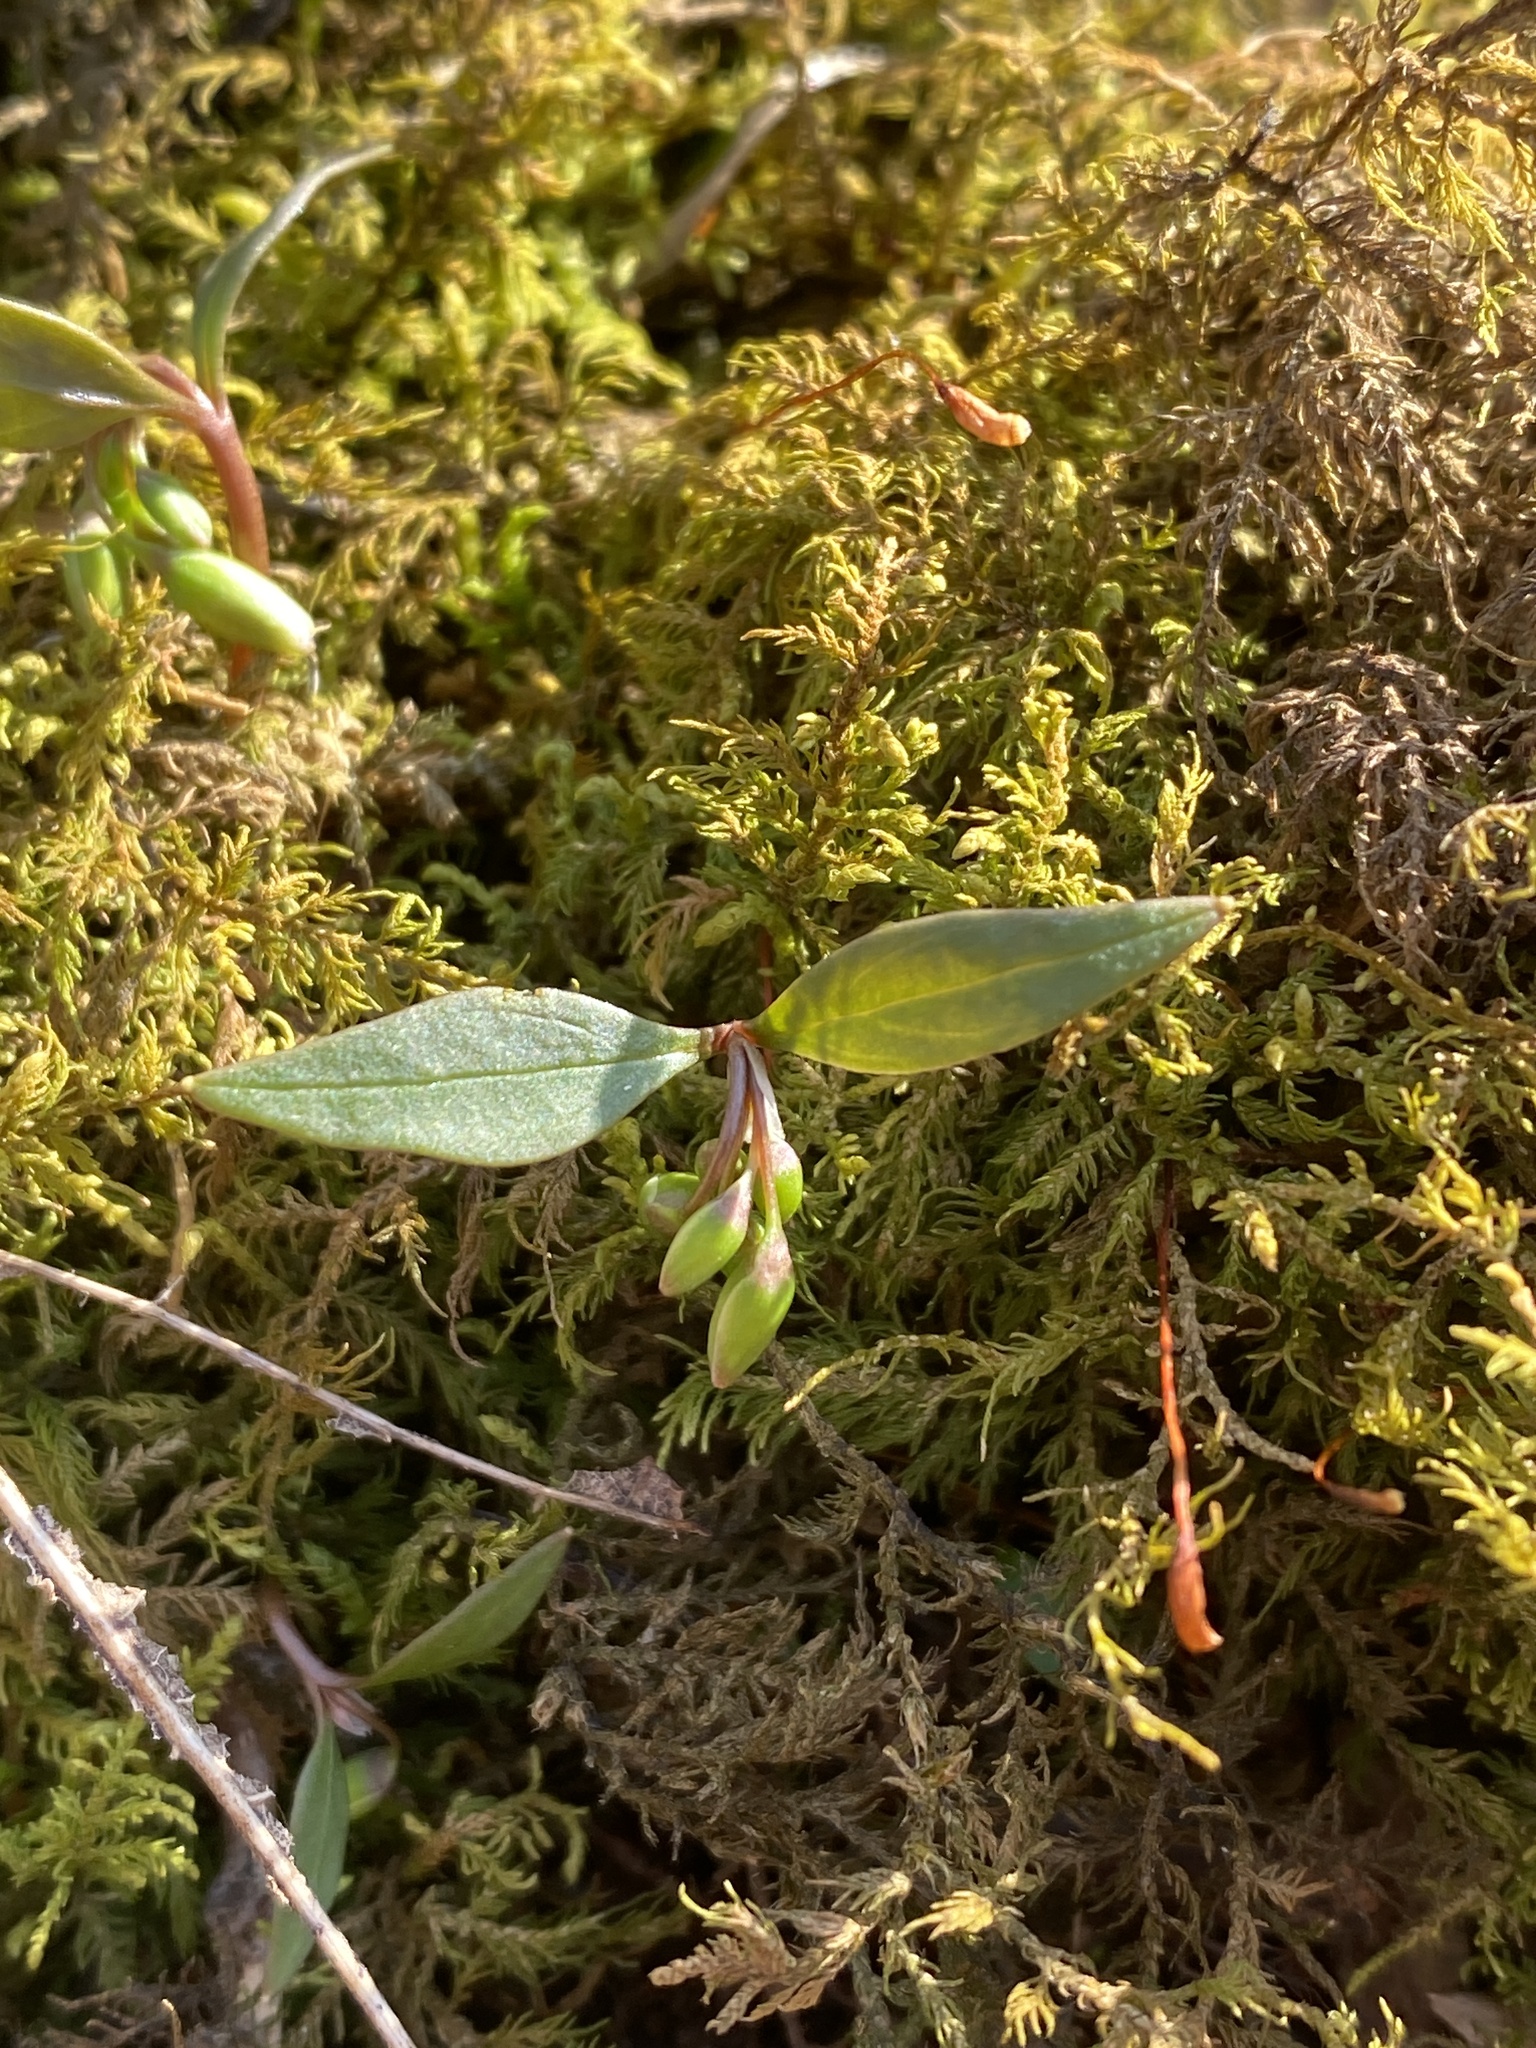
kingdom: Plantae
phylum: Tracheophyta
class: Magnoliopsida
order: Caryophyllales
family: Montiaceae
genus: Claytonia
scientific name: Claytonia caroliniana
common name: Carolina spring beauty
